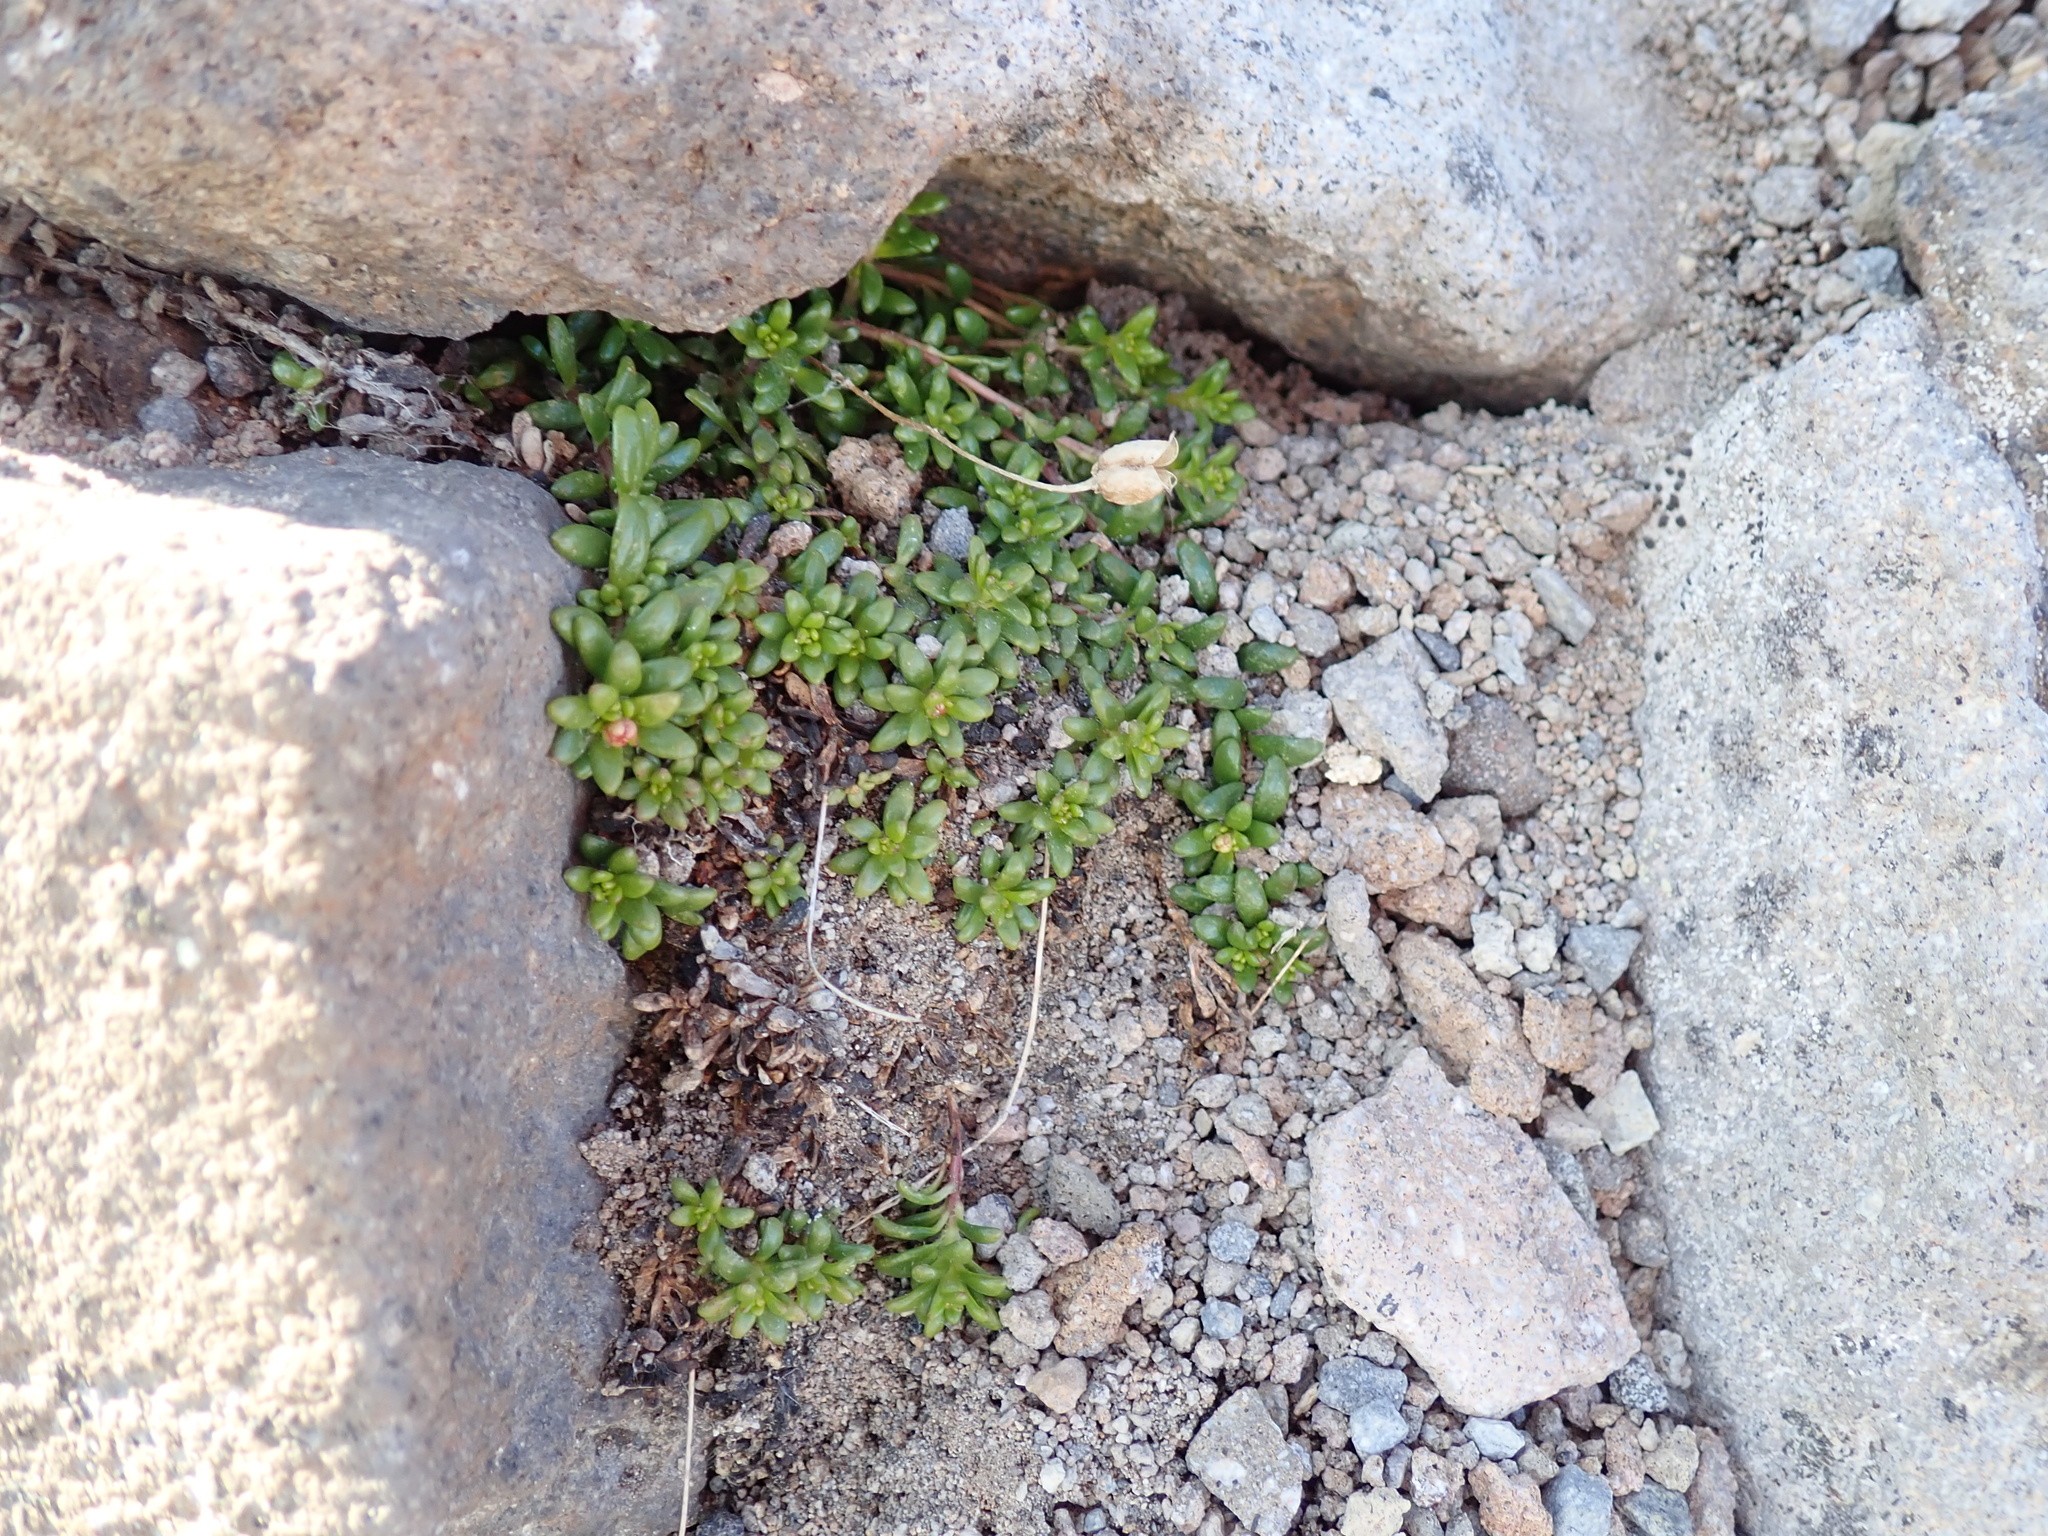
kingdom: Plantae
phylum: Tracheophyta
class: Magnoliopsida
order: Saxifragales
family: Saxifragaceae
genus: Micranthes
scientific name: Micranthes tolmiei
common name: Tolmie's saxifrage
